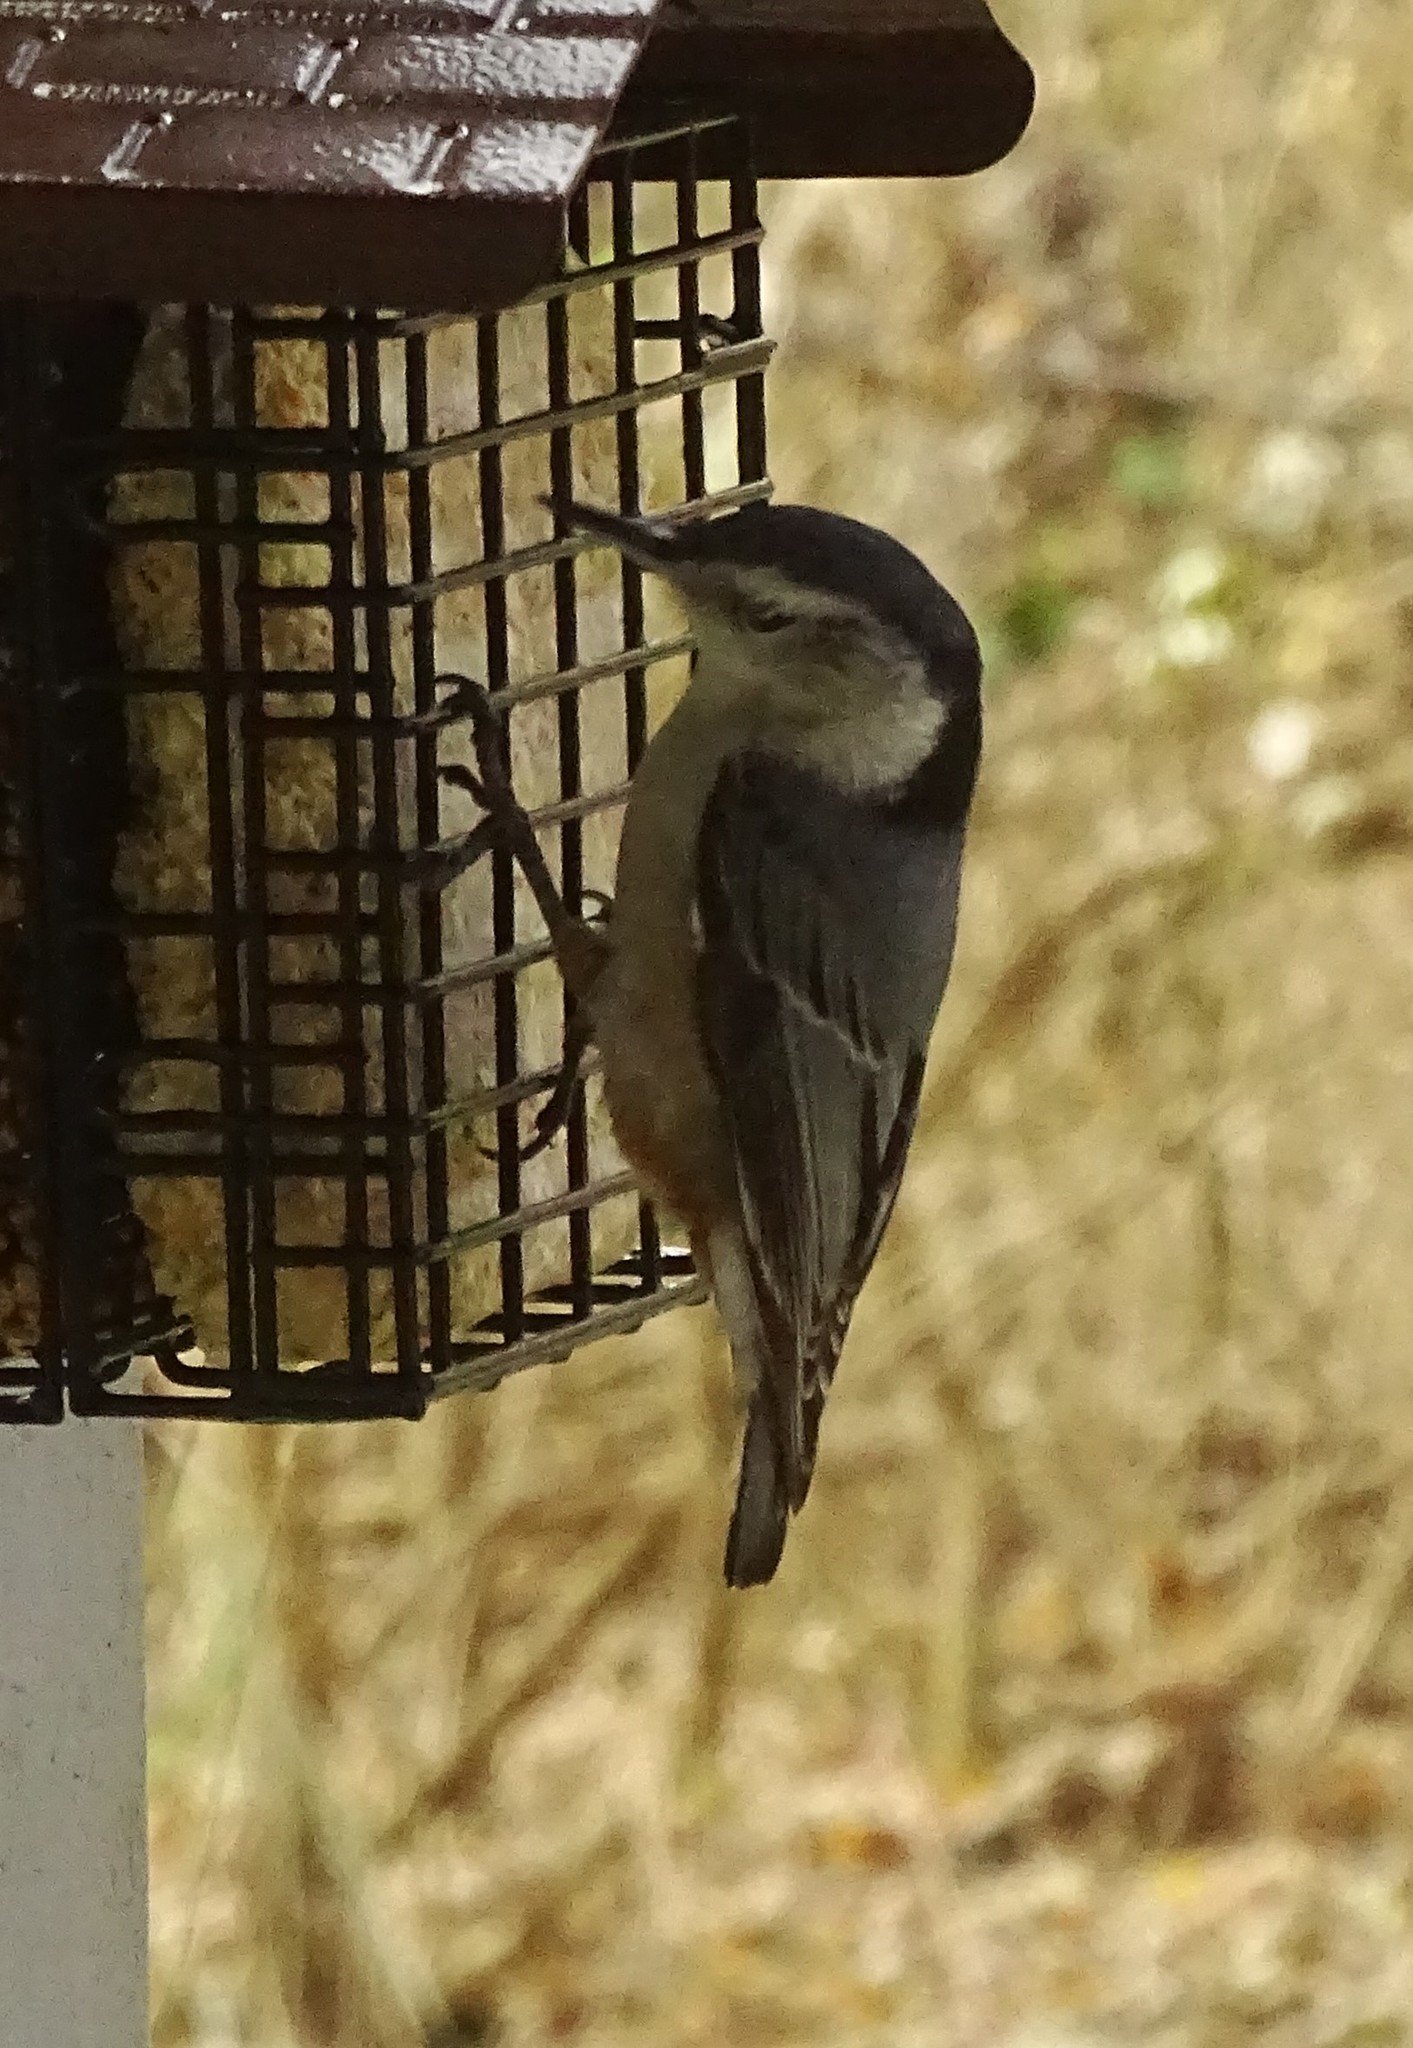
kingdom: Animalia
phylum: Chordata
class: Aves
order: Passeriformes
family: Sittidae
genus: Sitta
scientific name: Sitta carolinensis
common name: White-breasted nuthatch
